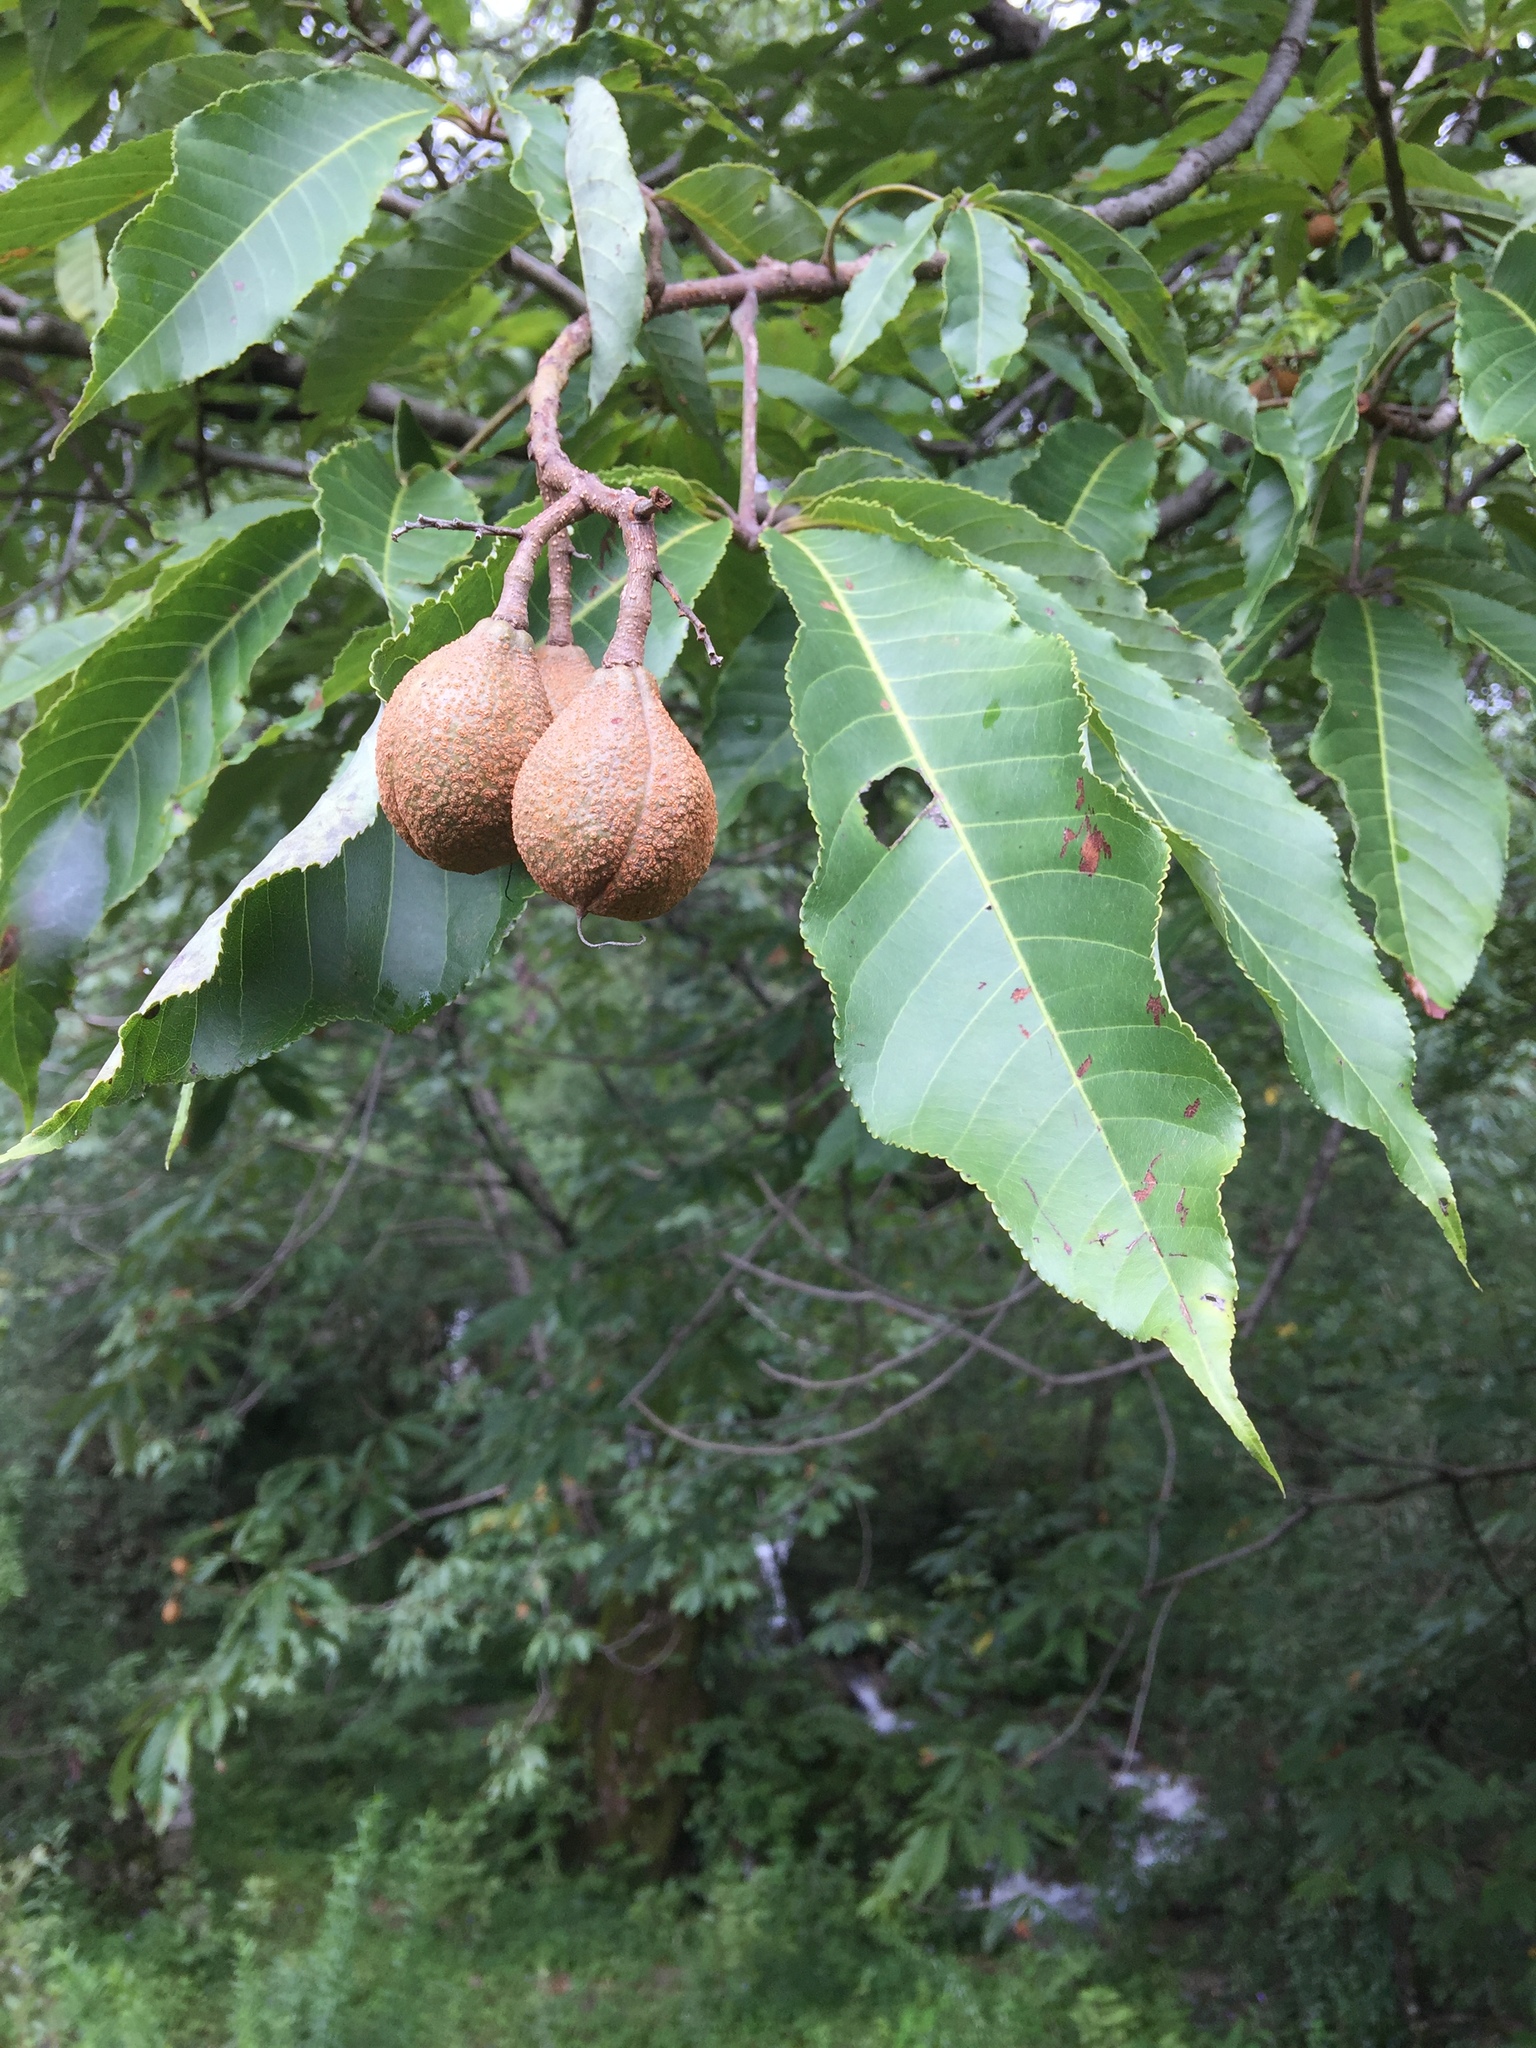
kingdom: Plantae
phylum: Tracheophyta
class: Magnoliopsida
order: Sapindales
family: Sapindaceae
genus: Aesculus
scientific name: Aesculus indica
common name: Indian horse-chestnut
